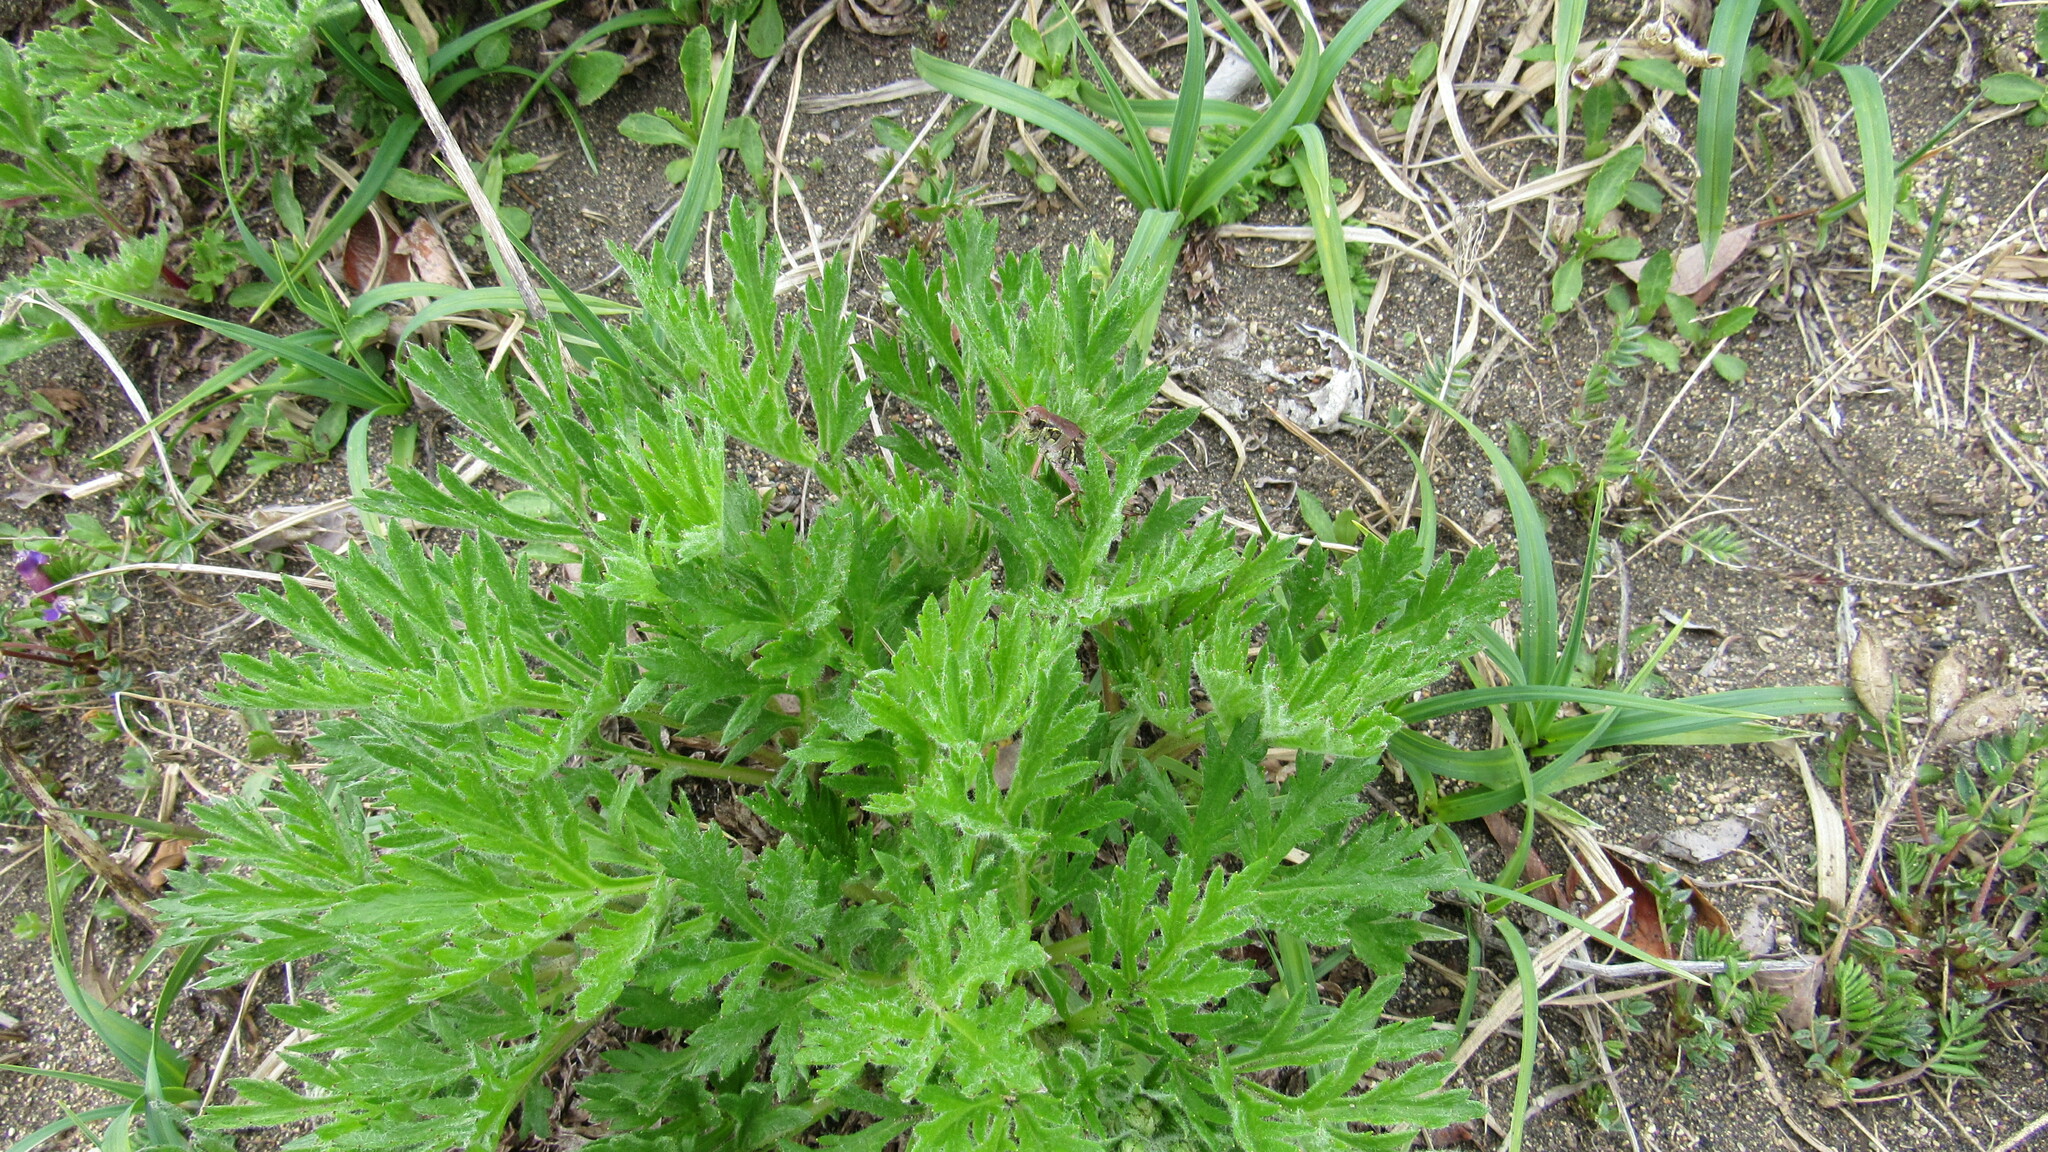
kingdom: Plantae
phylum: Tracheophyta
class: Magnoliopsida
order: Asterales
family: Asteraceae
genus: Artemisia
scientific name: Artemisia arctica
